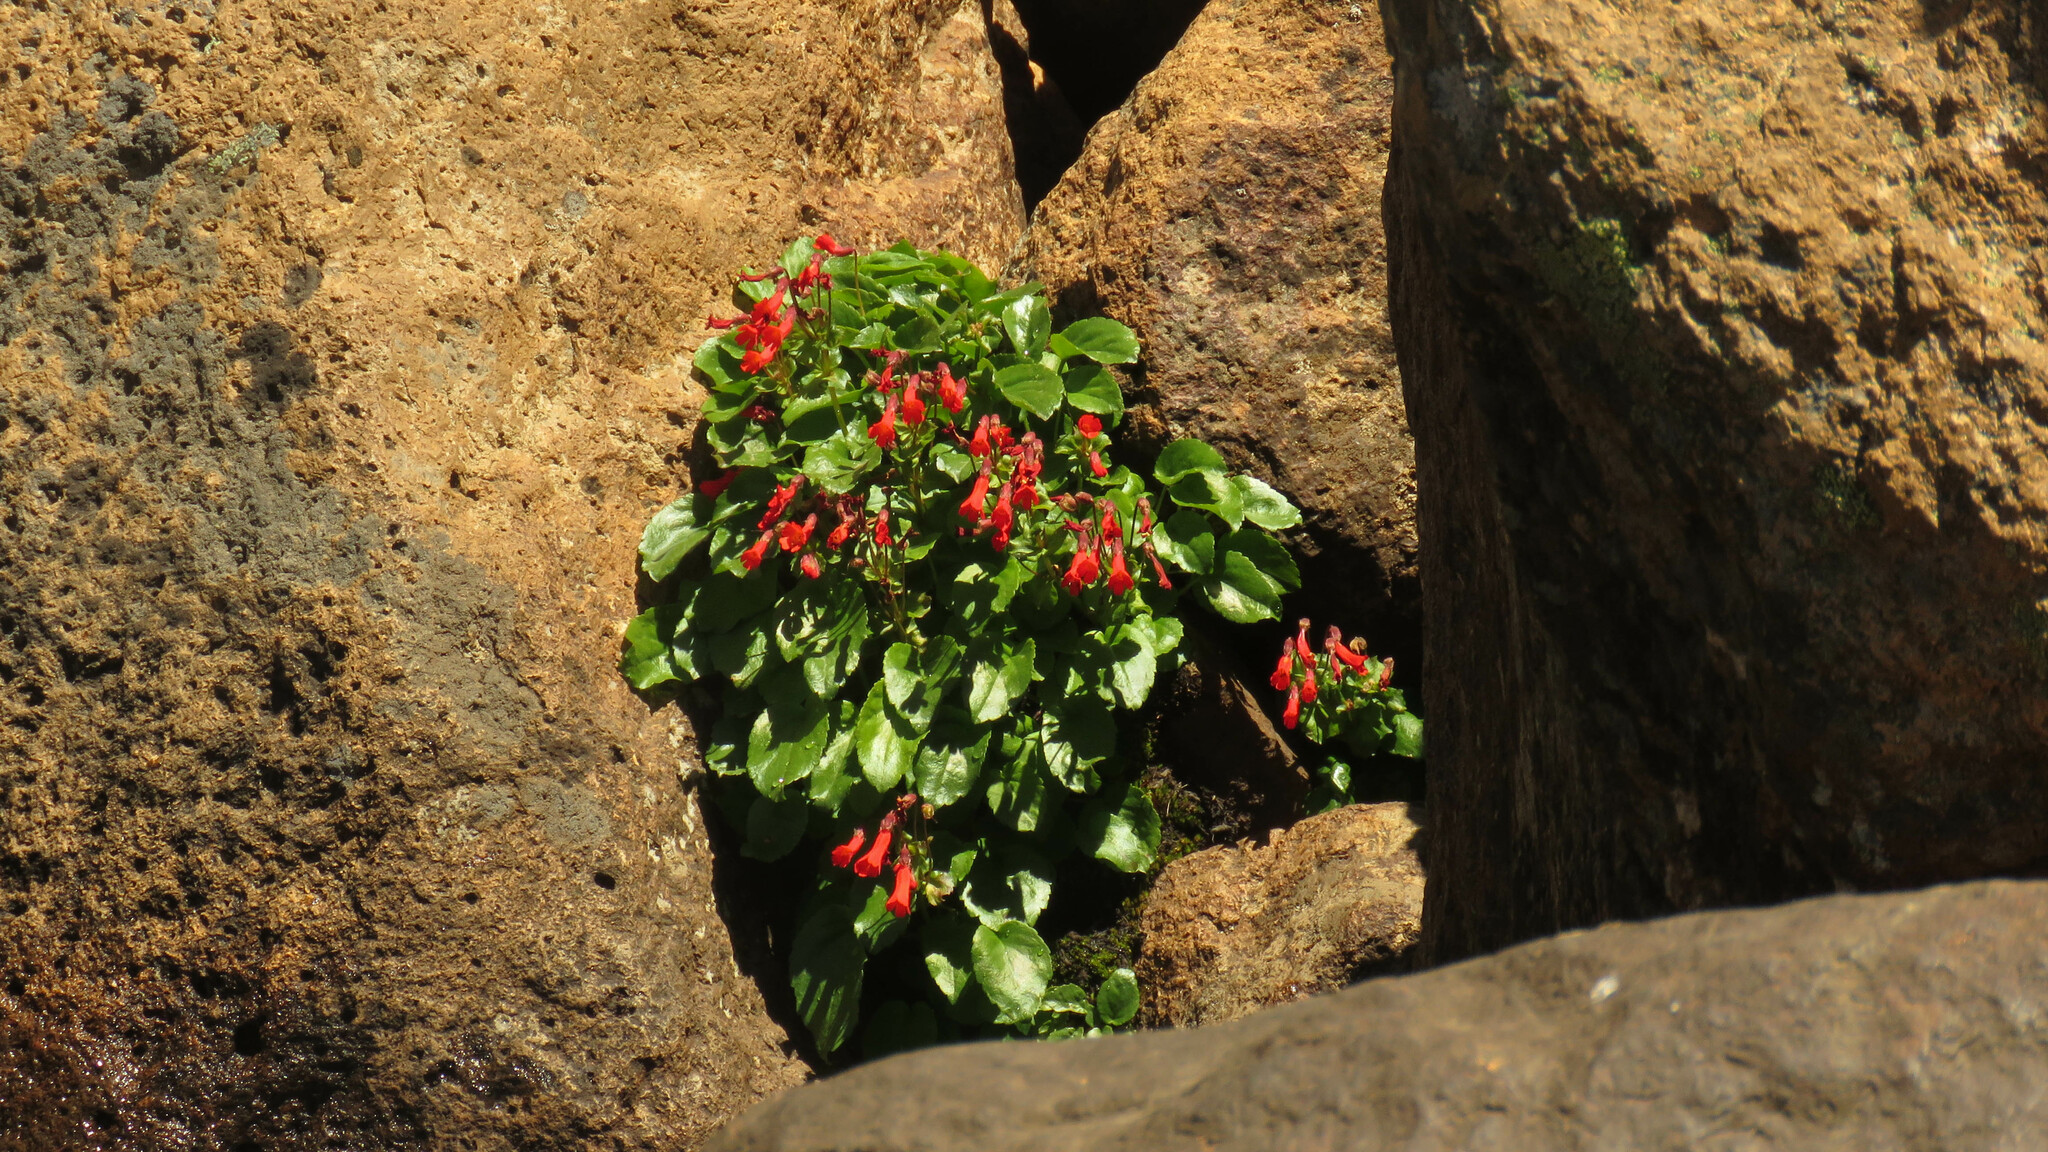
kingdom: Plantae
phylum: Tracheophyta
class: Magnoliopsida
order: Lamiales
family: Plantaginaceae
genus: Ourisia
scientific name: Ourisia ruellioides
